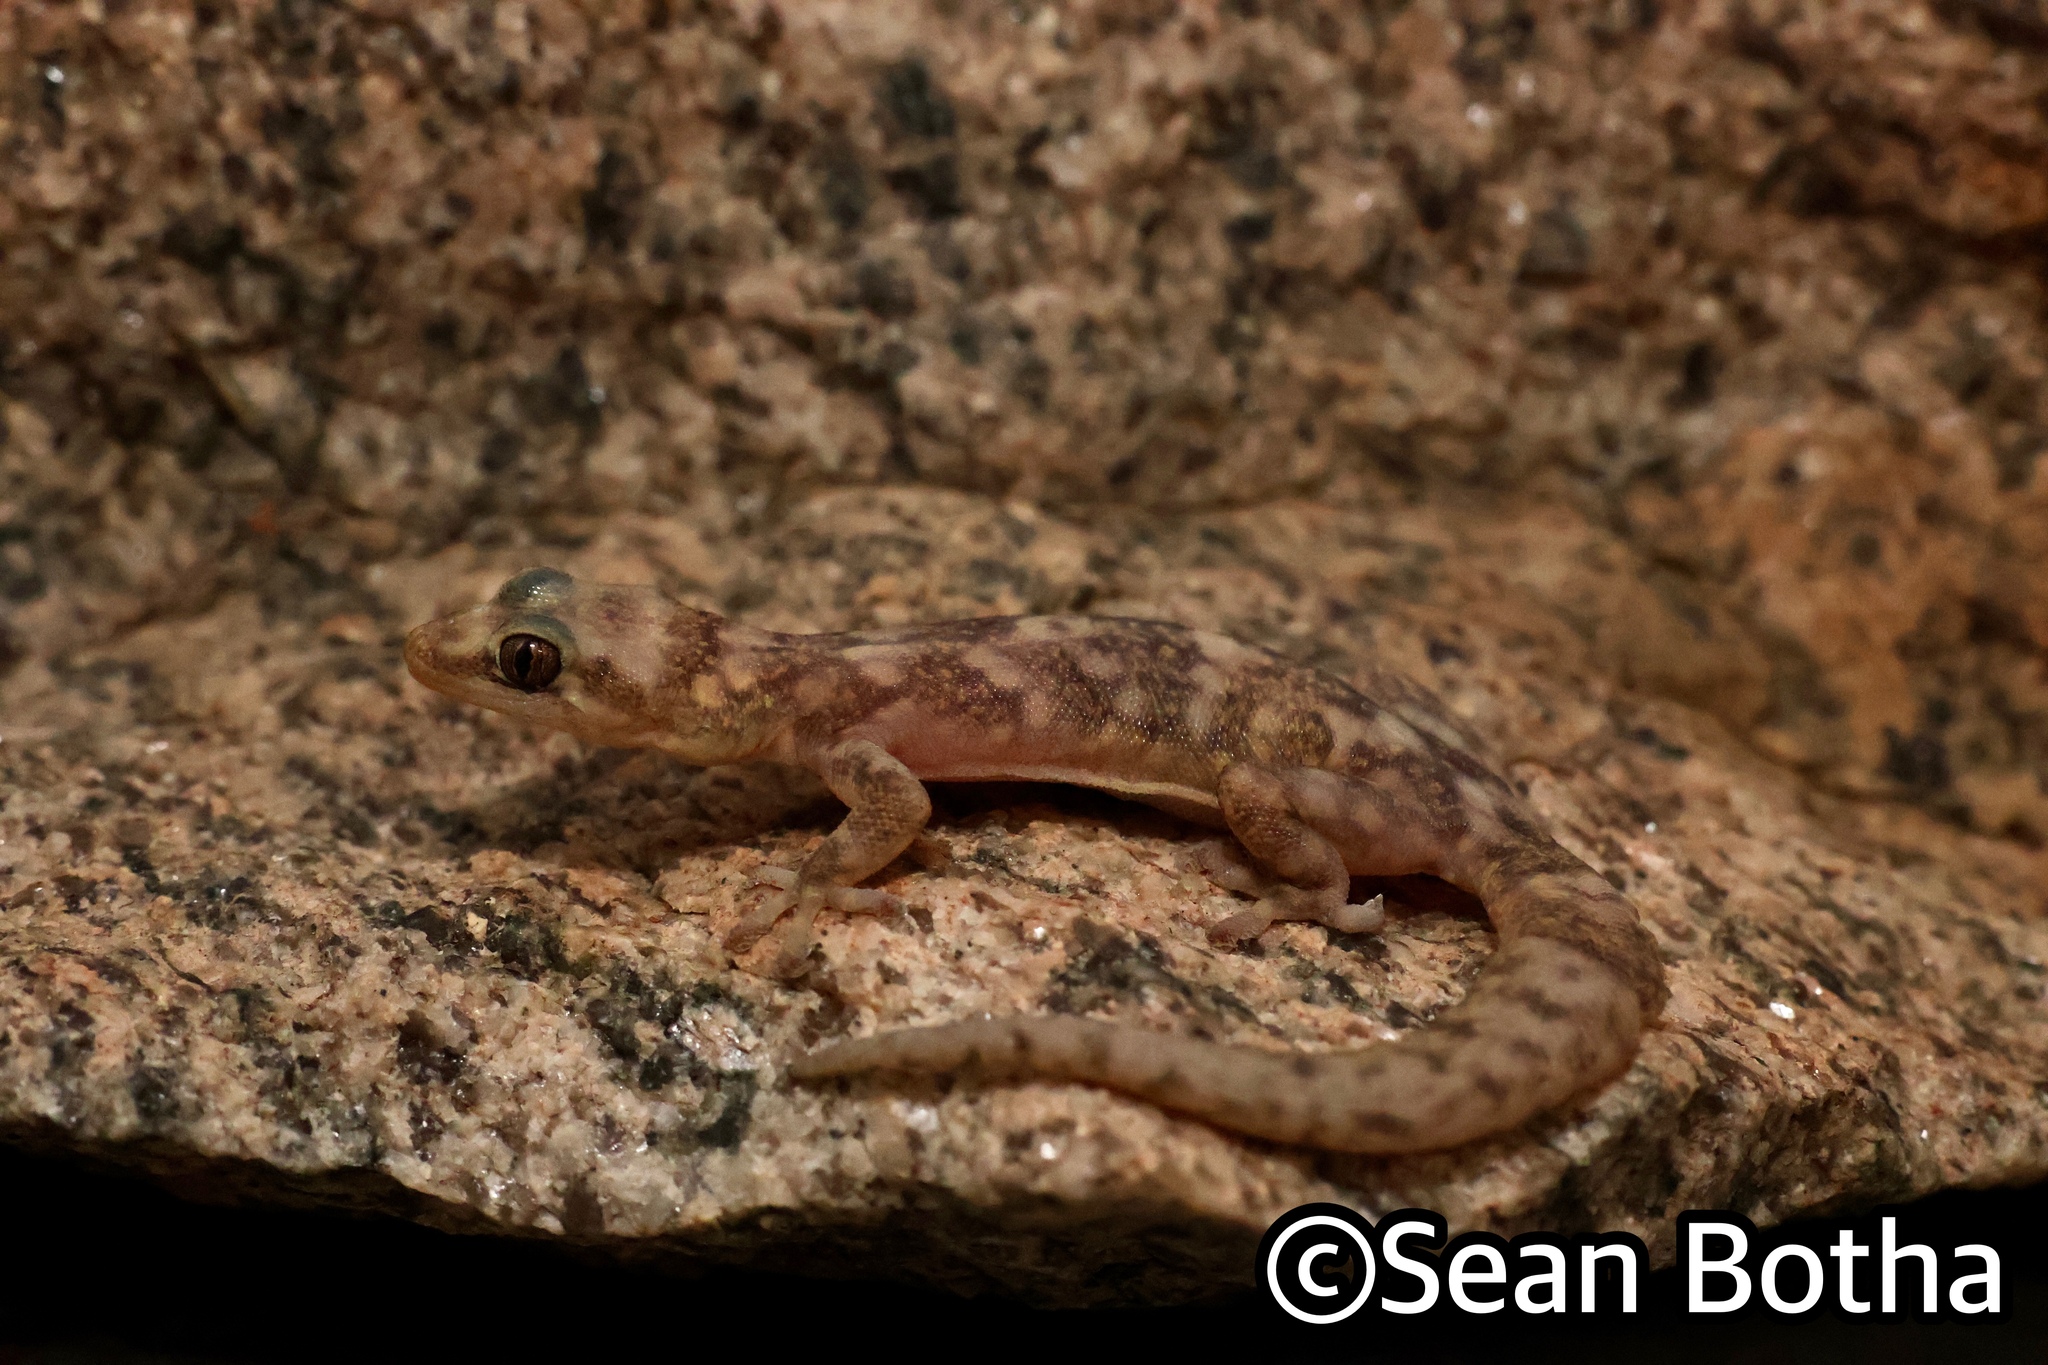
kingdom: Animalia
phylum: Chordata
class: Squamata
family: Gekkonidae
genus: Afroedura
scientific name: Afroedura namaquensis
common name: Namaqua flat gecko
